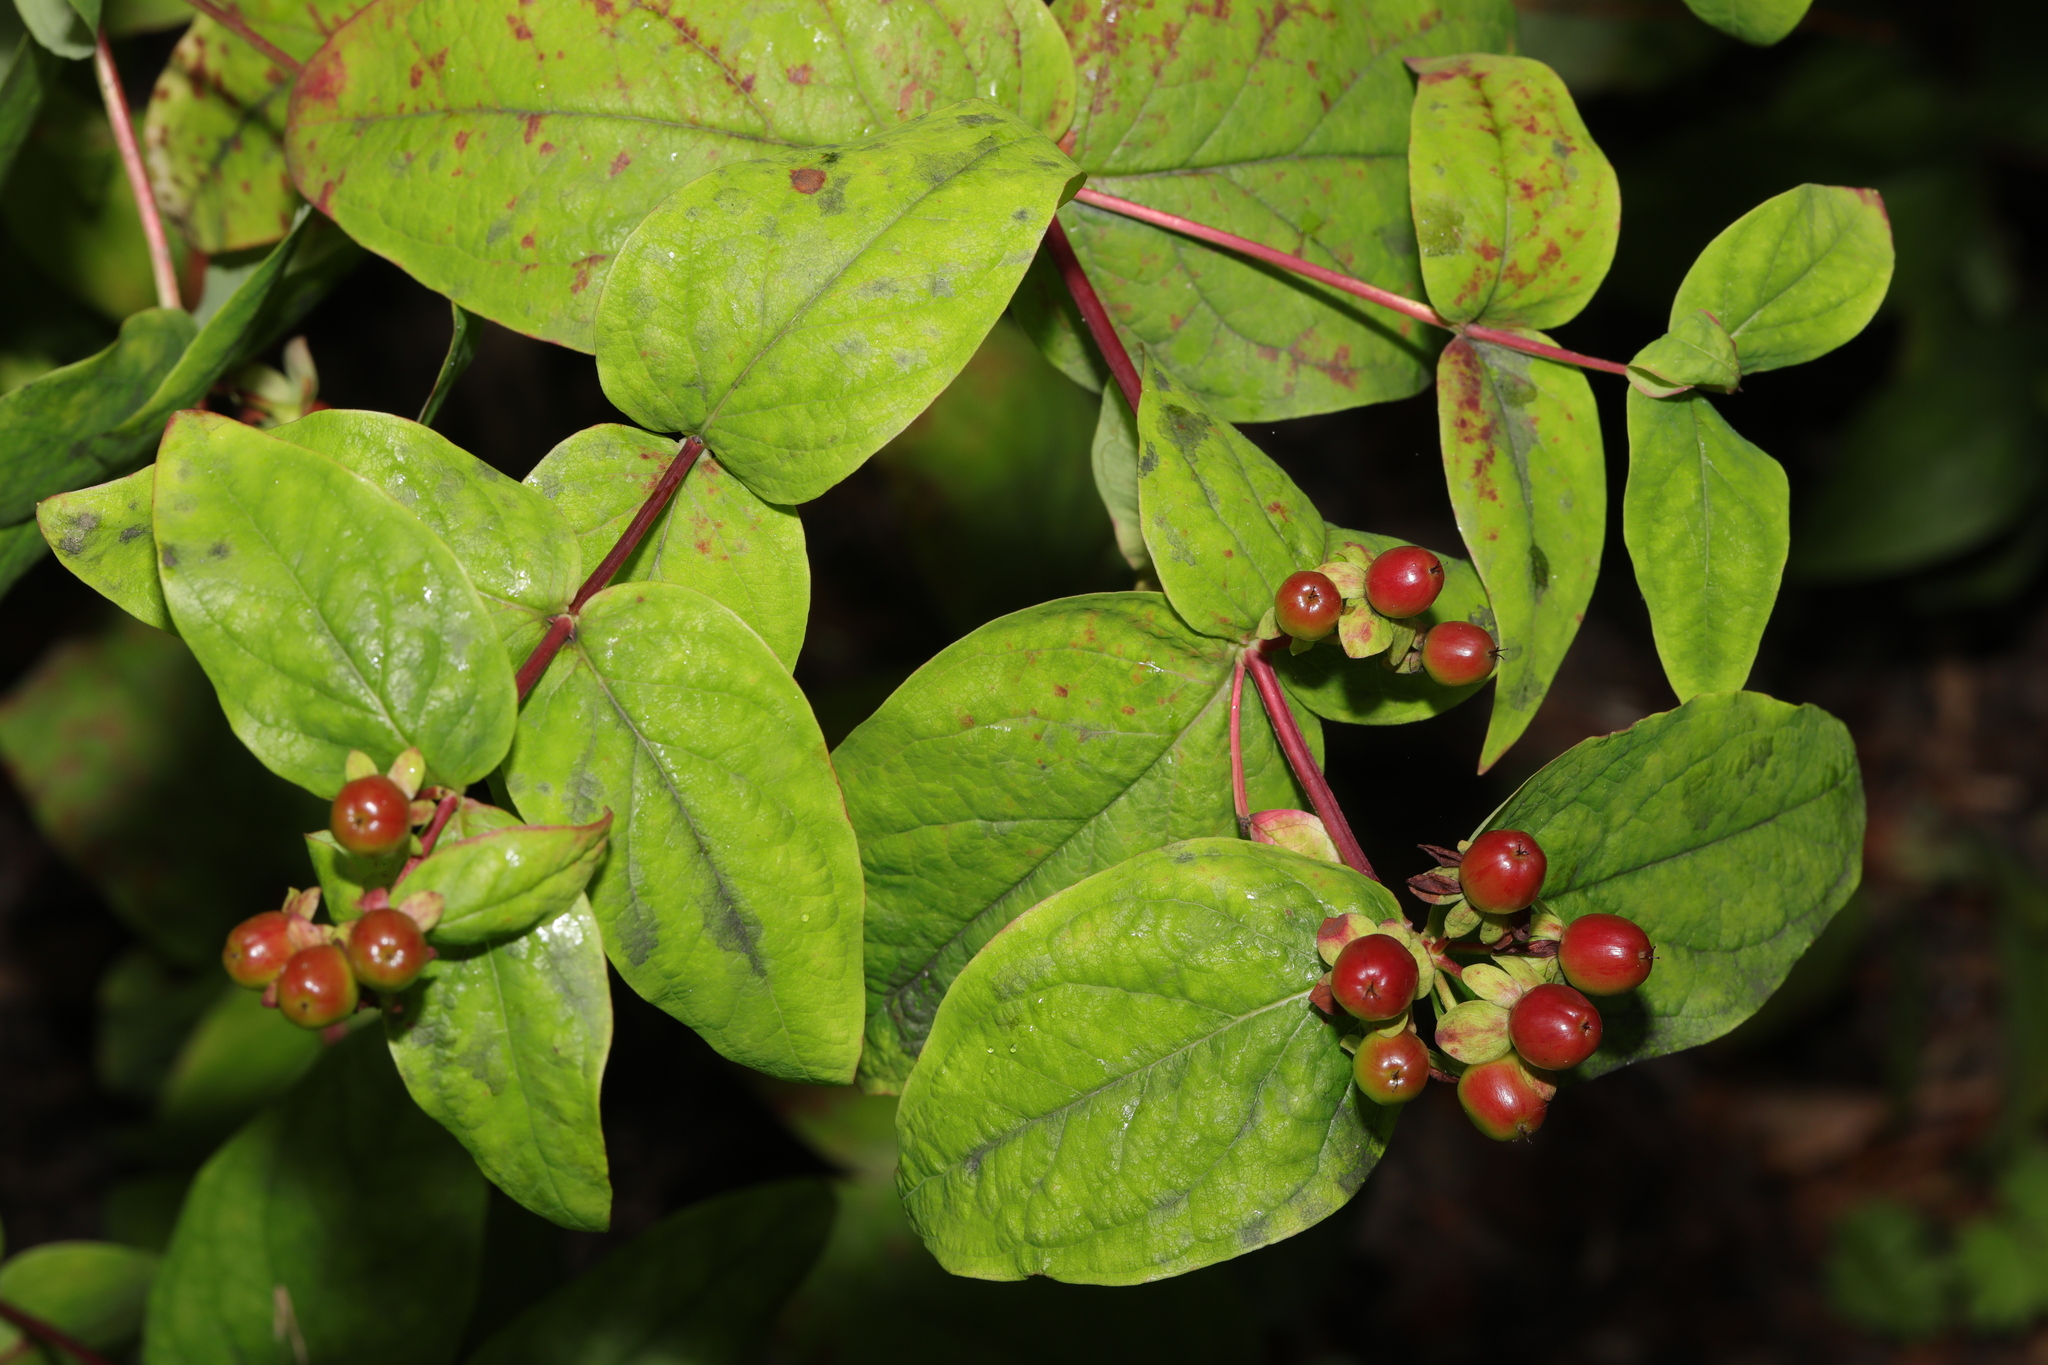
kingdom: Plantae
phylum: Tracheophyta
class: Magnoliopsida
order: Malpighiales
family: Hypericaceae
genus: Hypericum
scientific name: Hypericum androsaemum
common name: Sweet-amber
